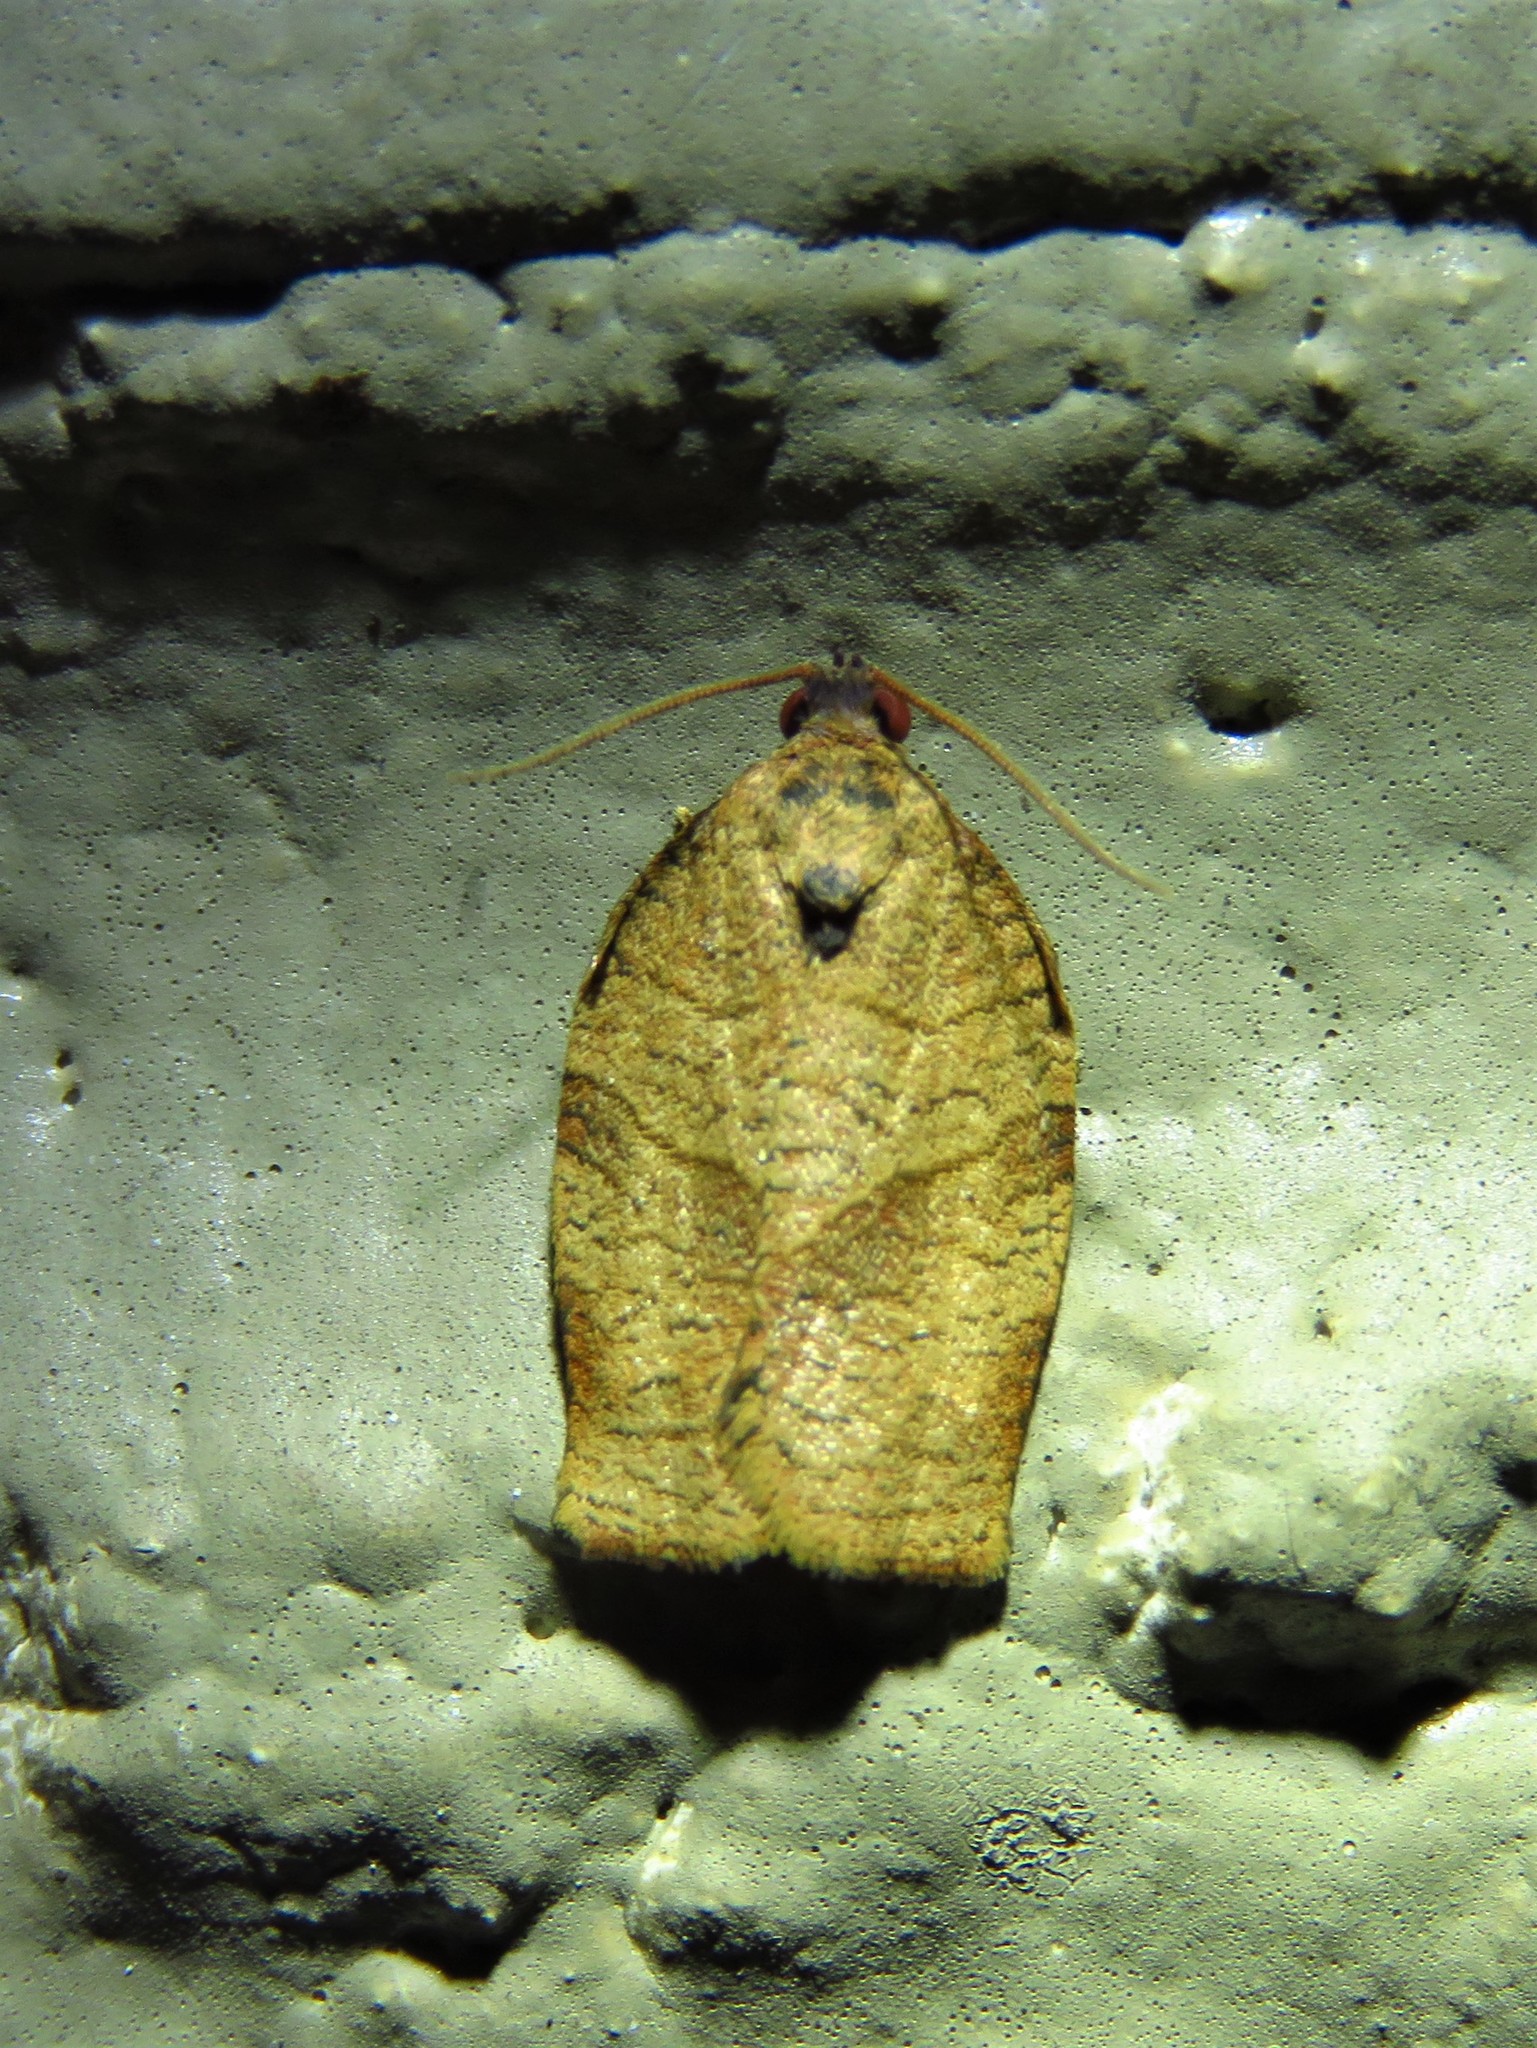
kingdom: Animalia
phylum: Arthropoda
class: Insecta
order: Lepidoptera
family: Tortricidae
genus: Choristoneura
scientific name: Choristoneura rosaceana
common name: Oblique-banded leafroller moth
